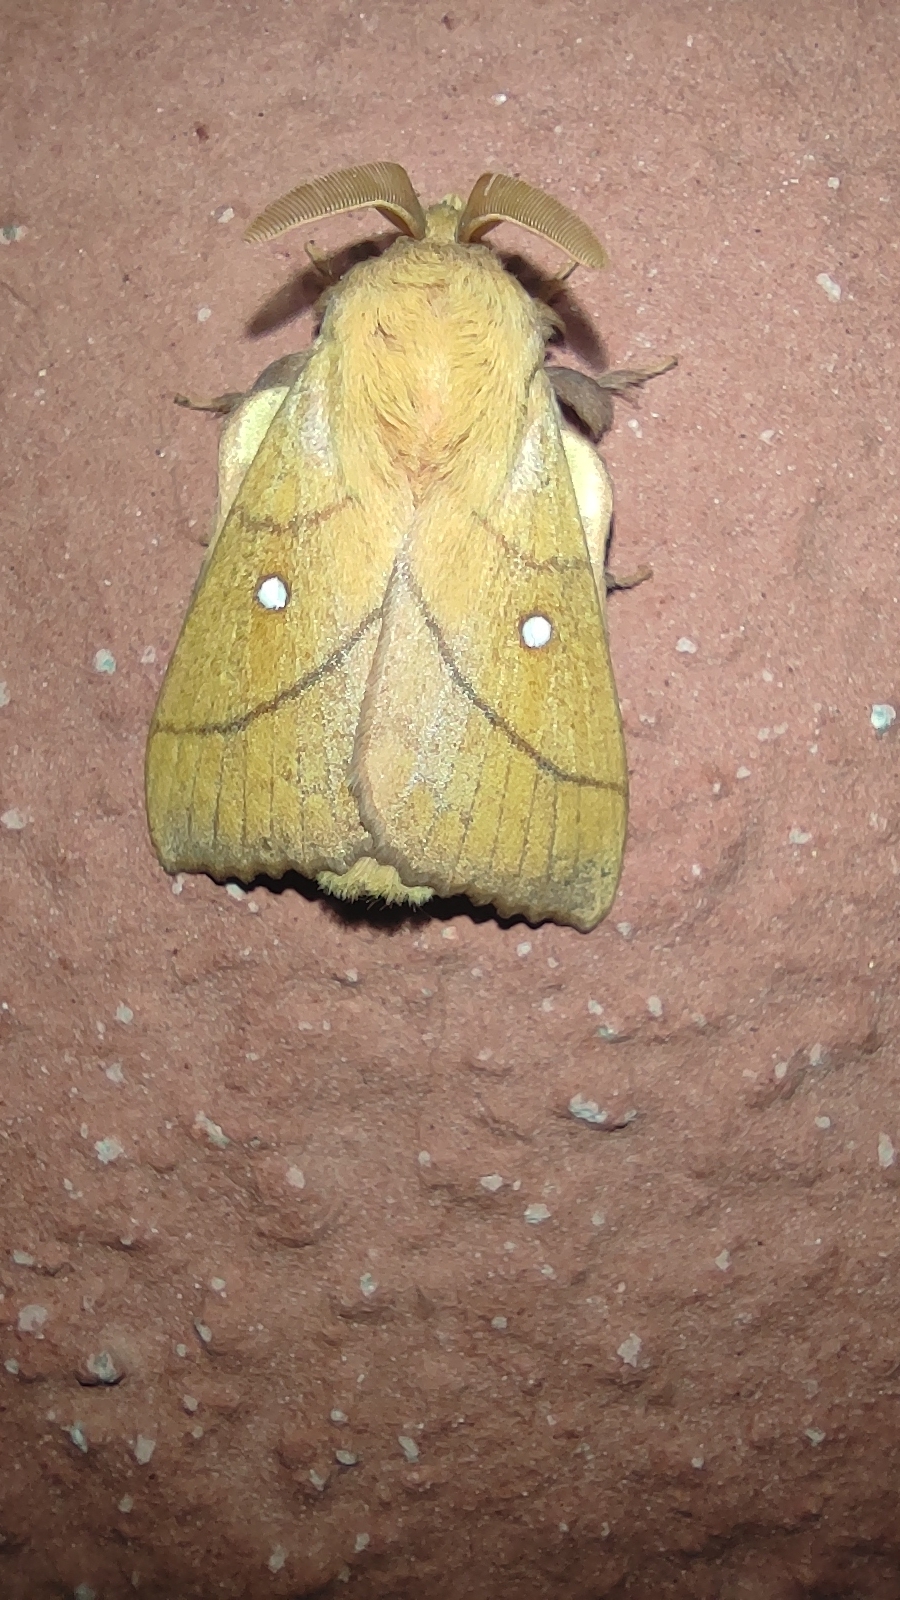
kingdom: Animalia
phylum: Arthropoda
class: Insecta
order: Lepidoptera
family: Lasiocampidae
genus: Odonestis
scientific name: Odonestis pruni
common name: Plum lappet
